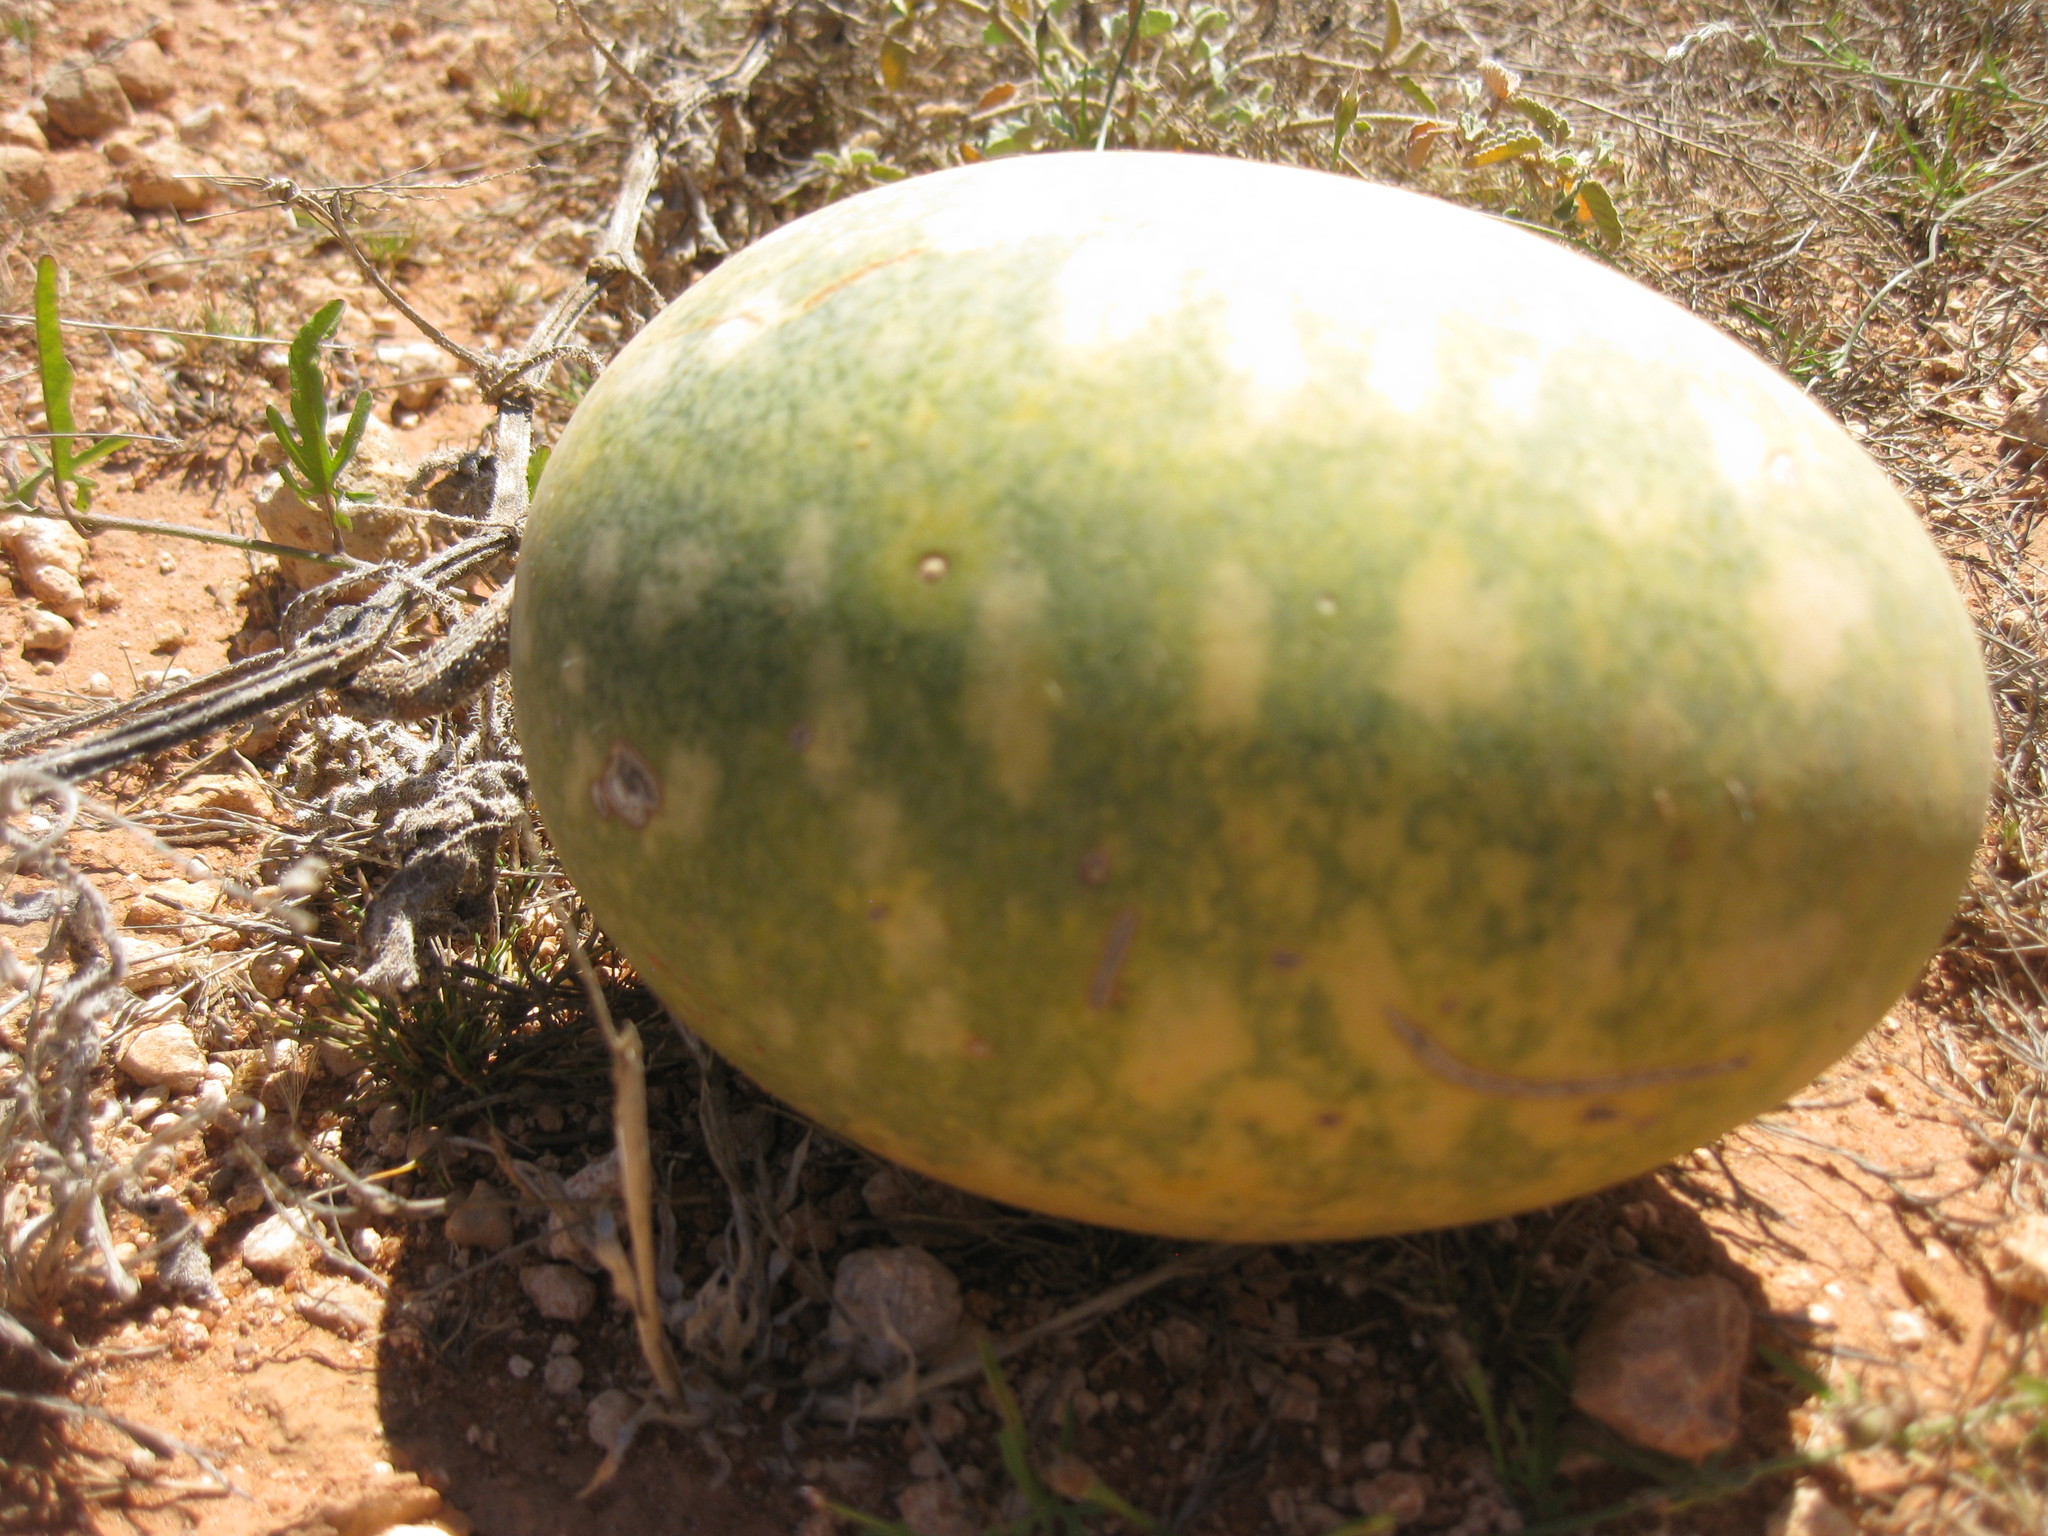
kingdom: Plantae
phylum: Tracheophyta
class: Magnoliopsida
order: Cucurbitales
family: Cucurbitaceae
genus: Citrullus
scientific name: Citrullus amarus
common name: Fodder-melon
